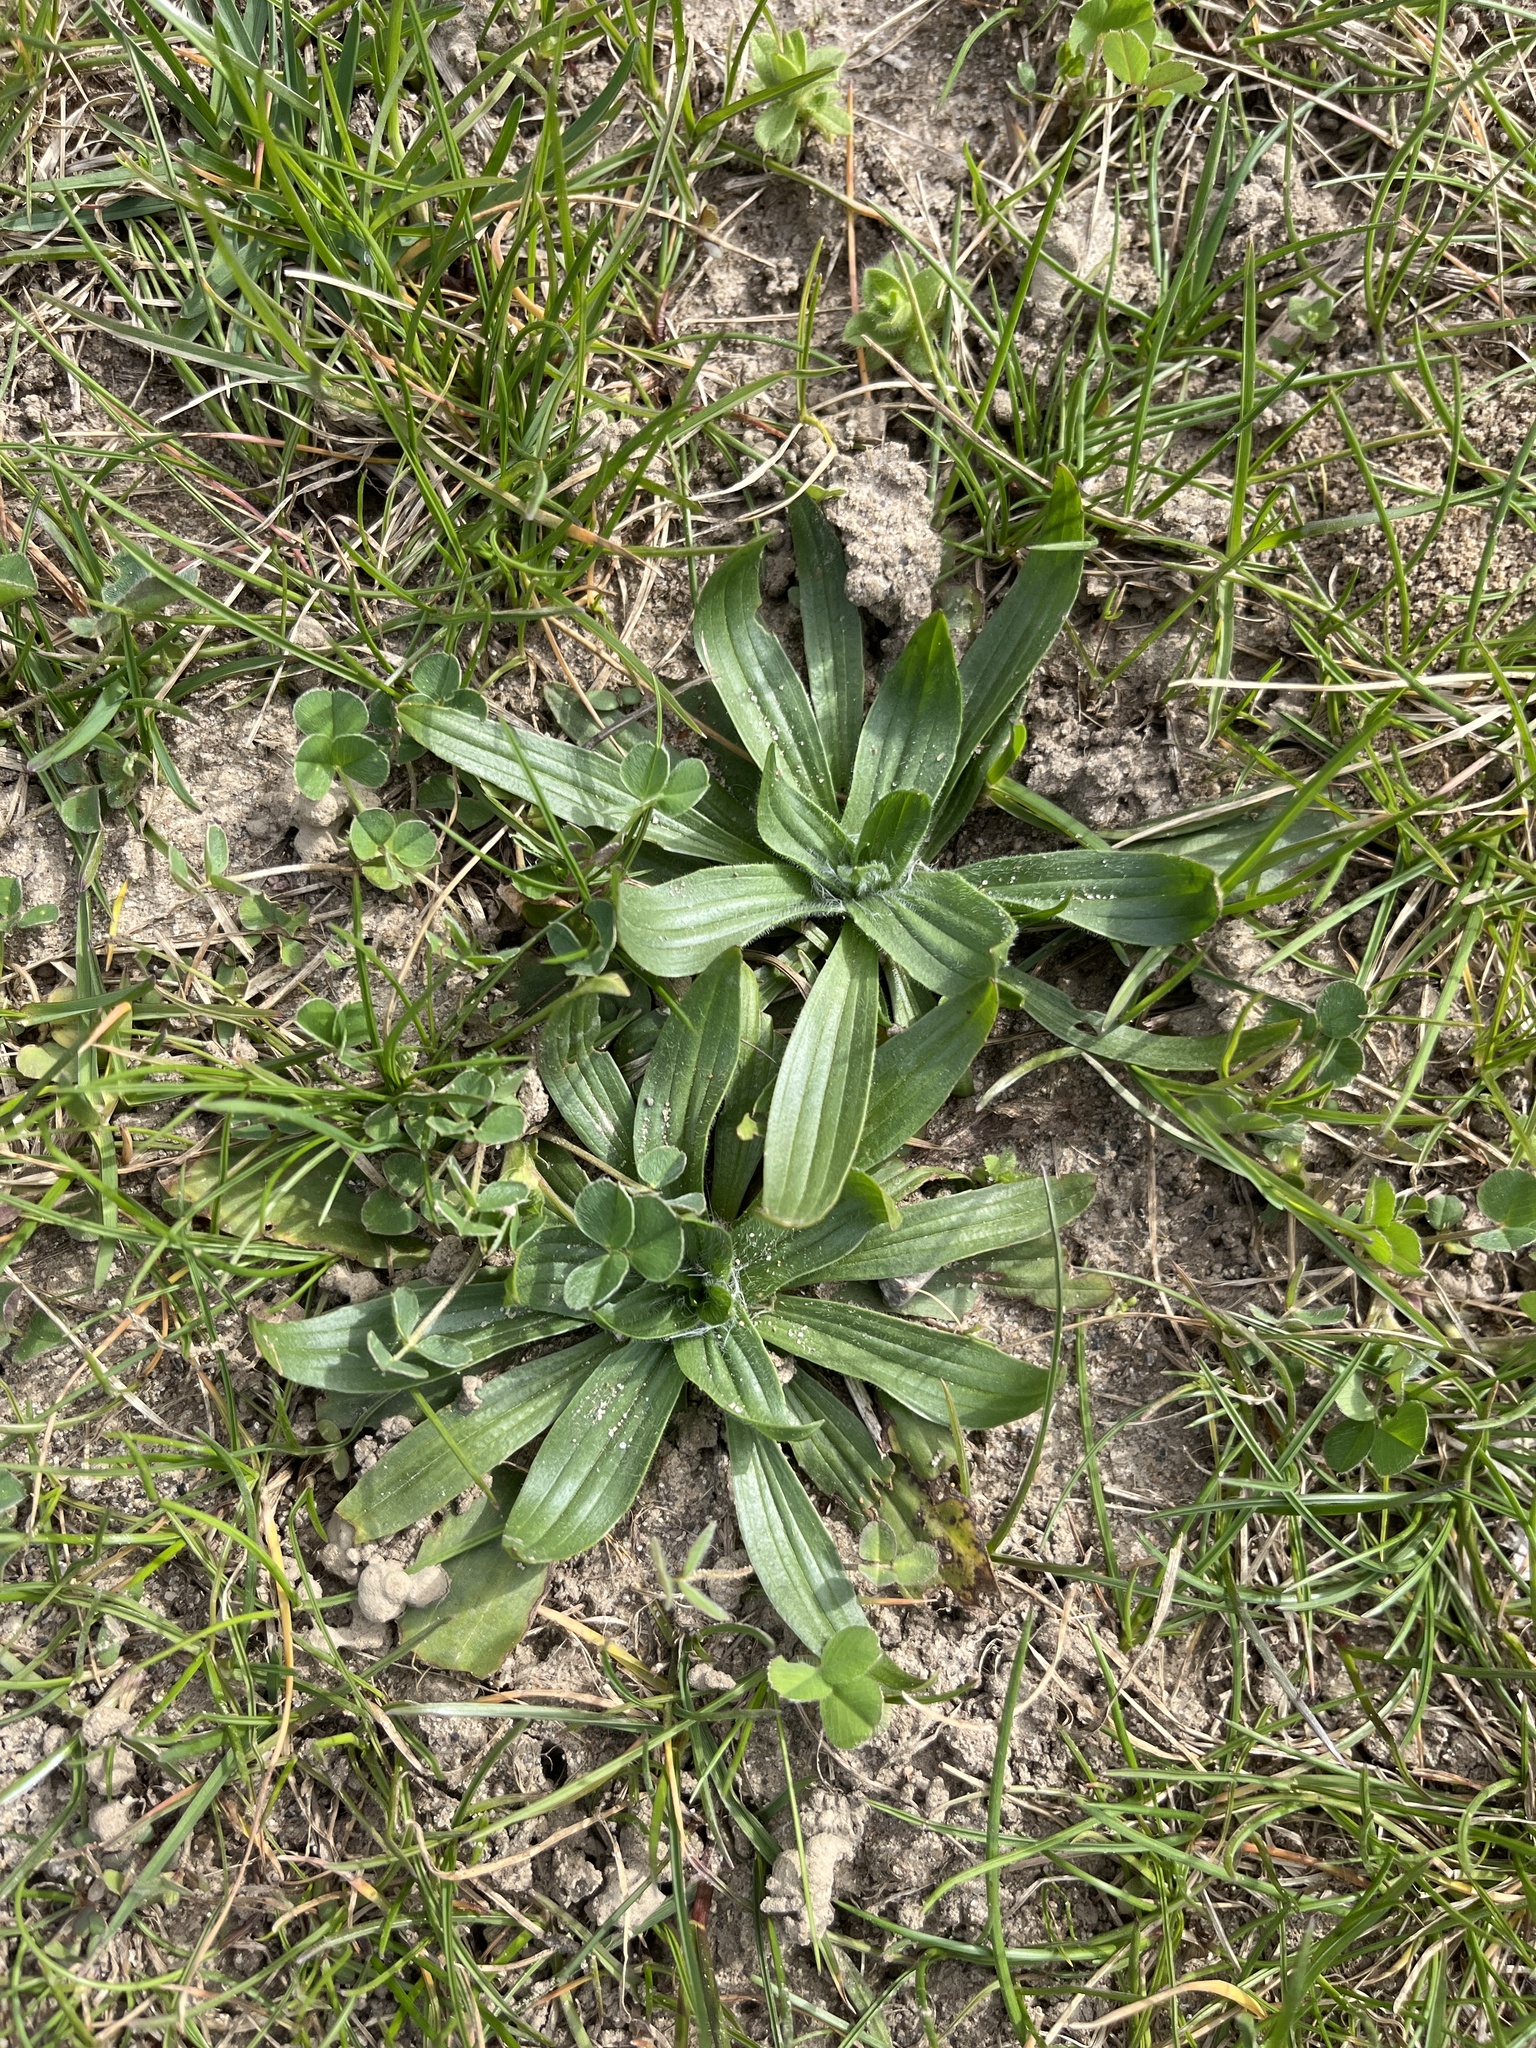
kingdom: Plantae
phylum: Tracheophyta
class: Magnoliopsida
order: Lamiales
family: Plantaginaceae
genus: Plantago
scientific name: Plantago lanceolata
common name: Ribwort plantain
